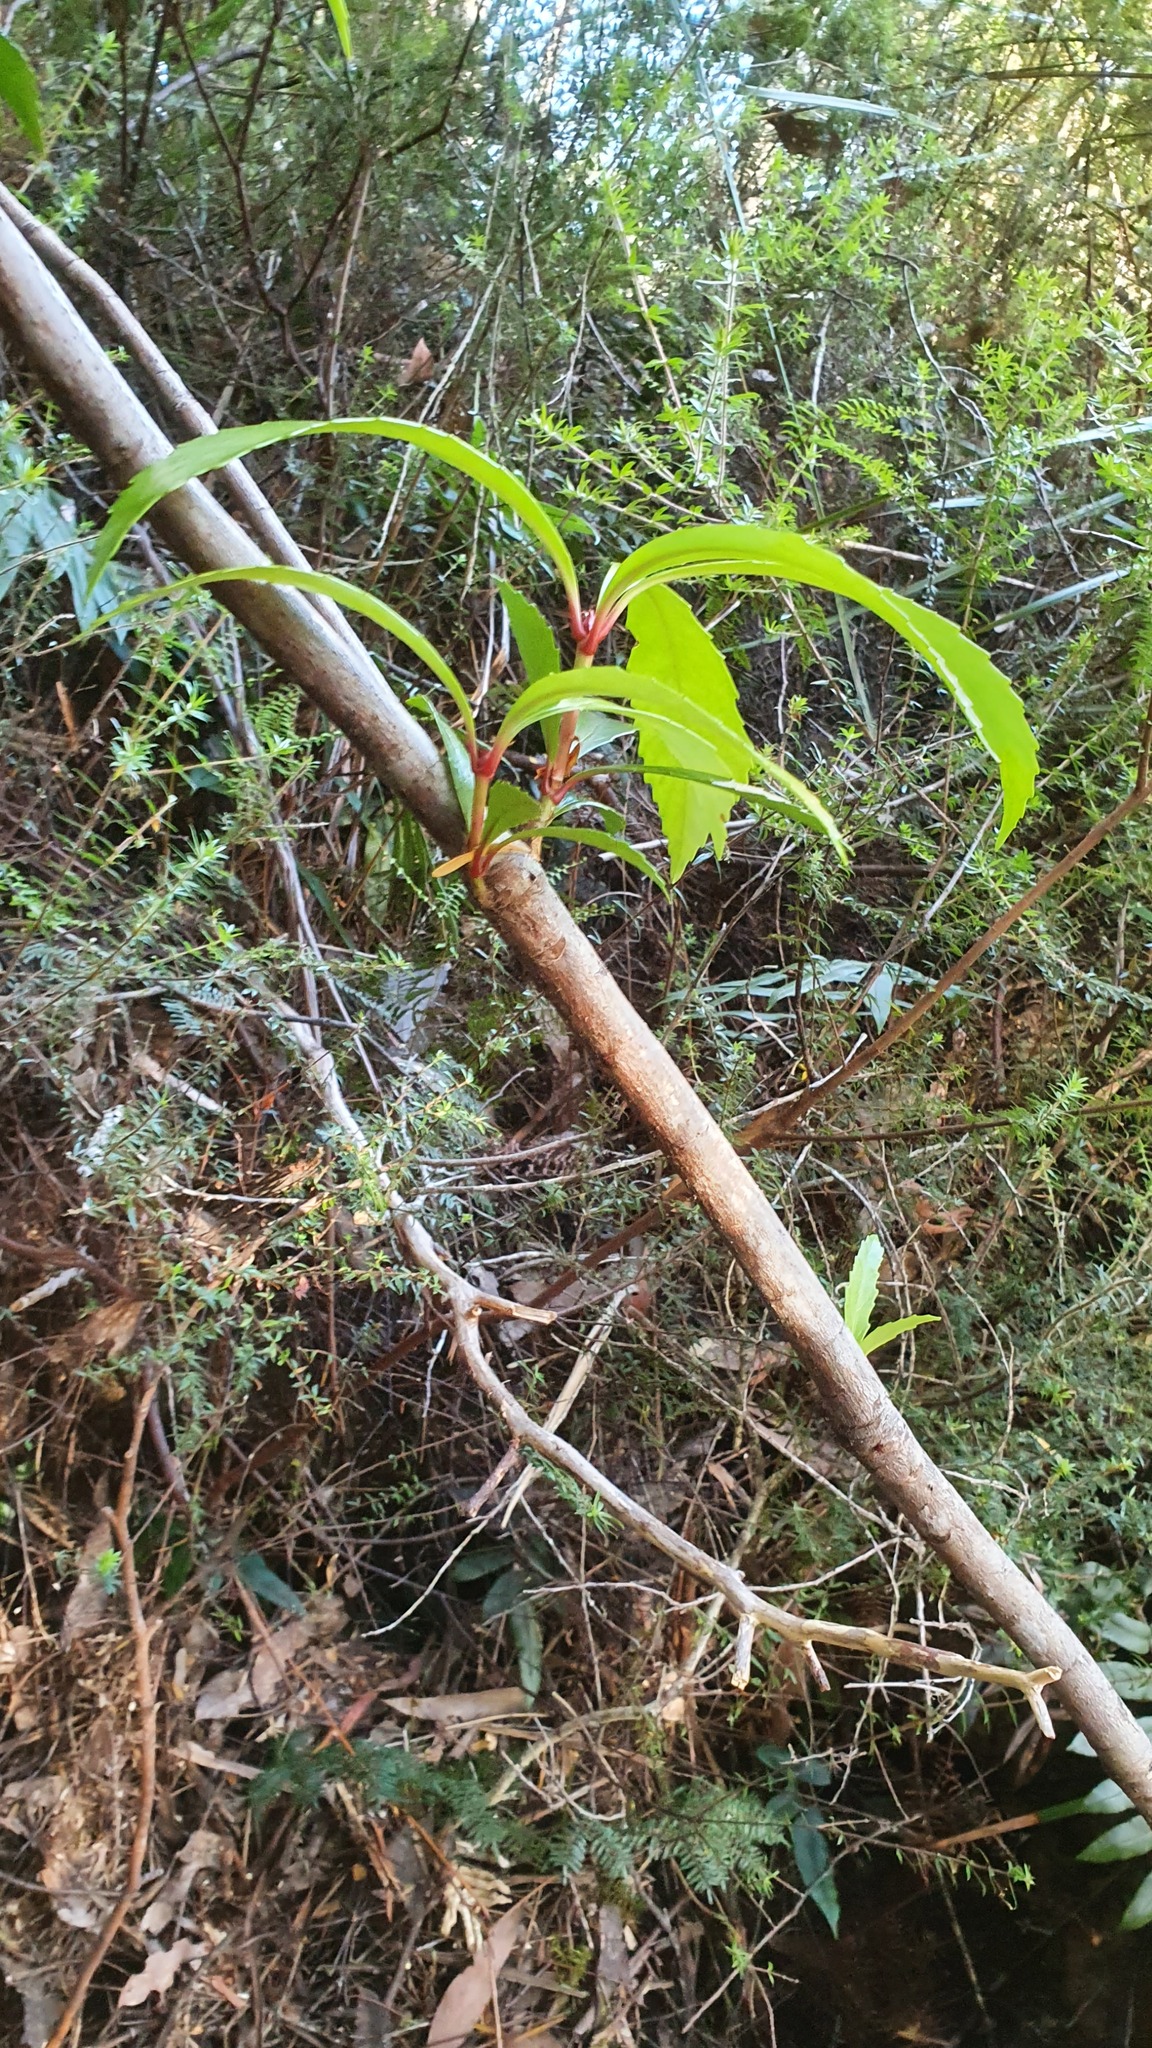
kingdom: Plantae
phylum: Tracheophyta
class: Magnoliopsida
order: Escalloniales
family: Escalloniaceae
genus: Anopterus
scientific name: Anopterus glandulosus
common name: Tasmanian-laurel
